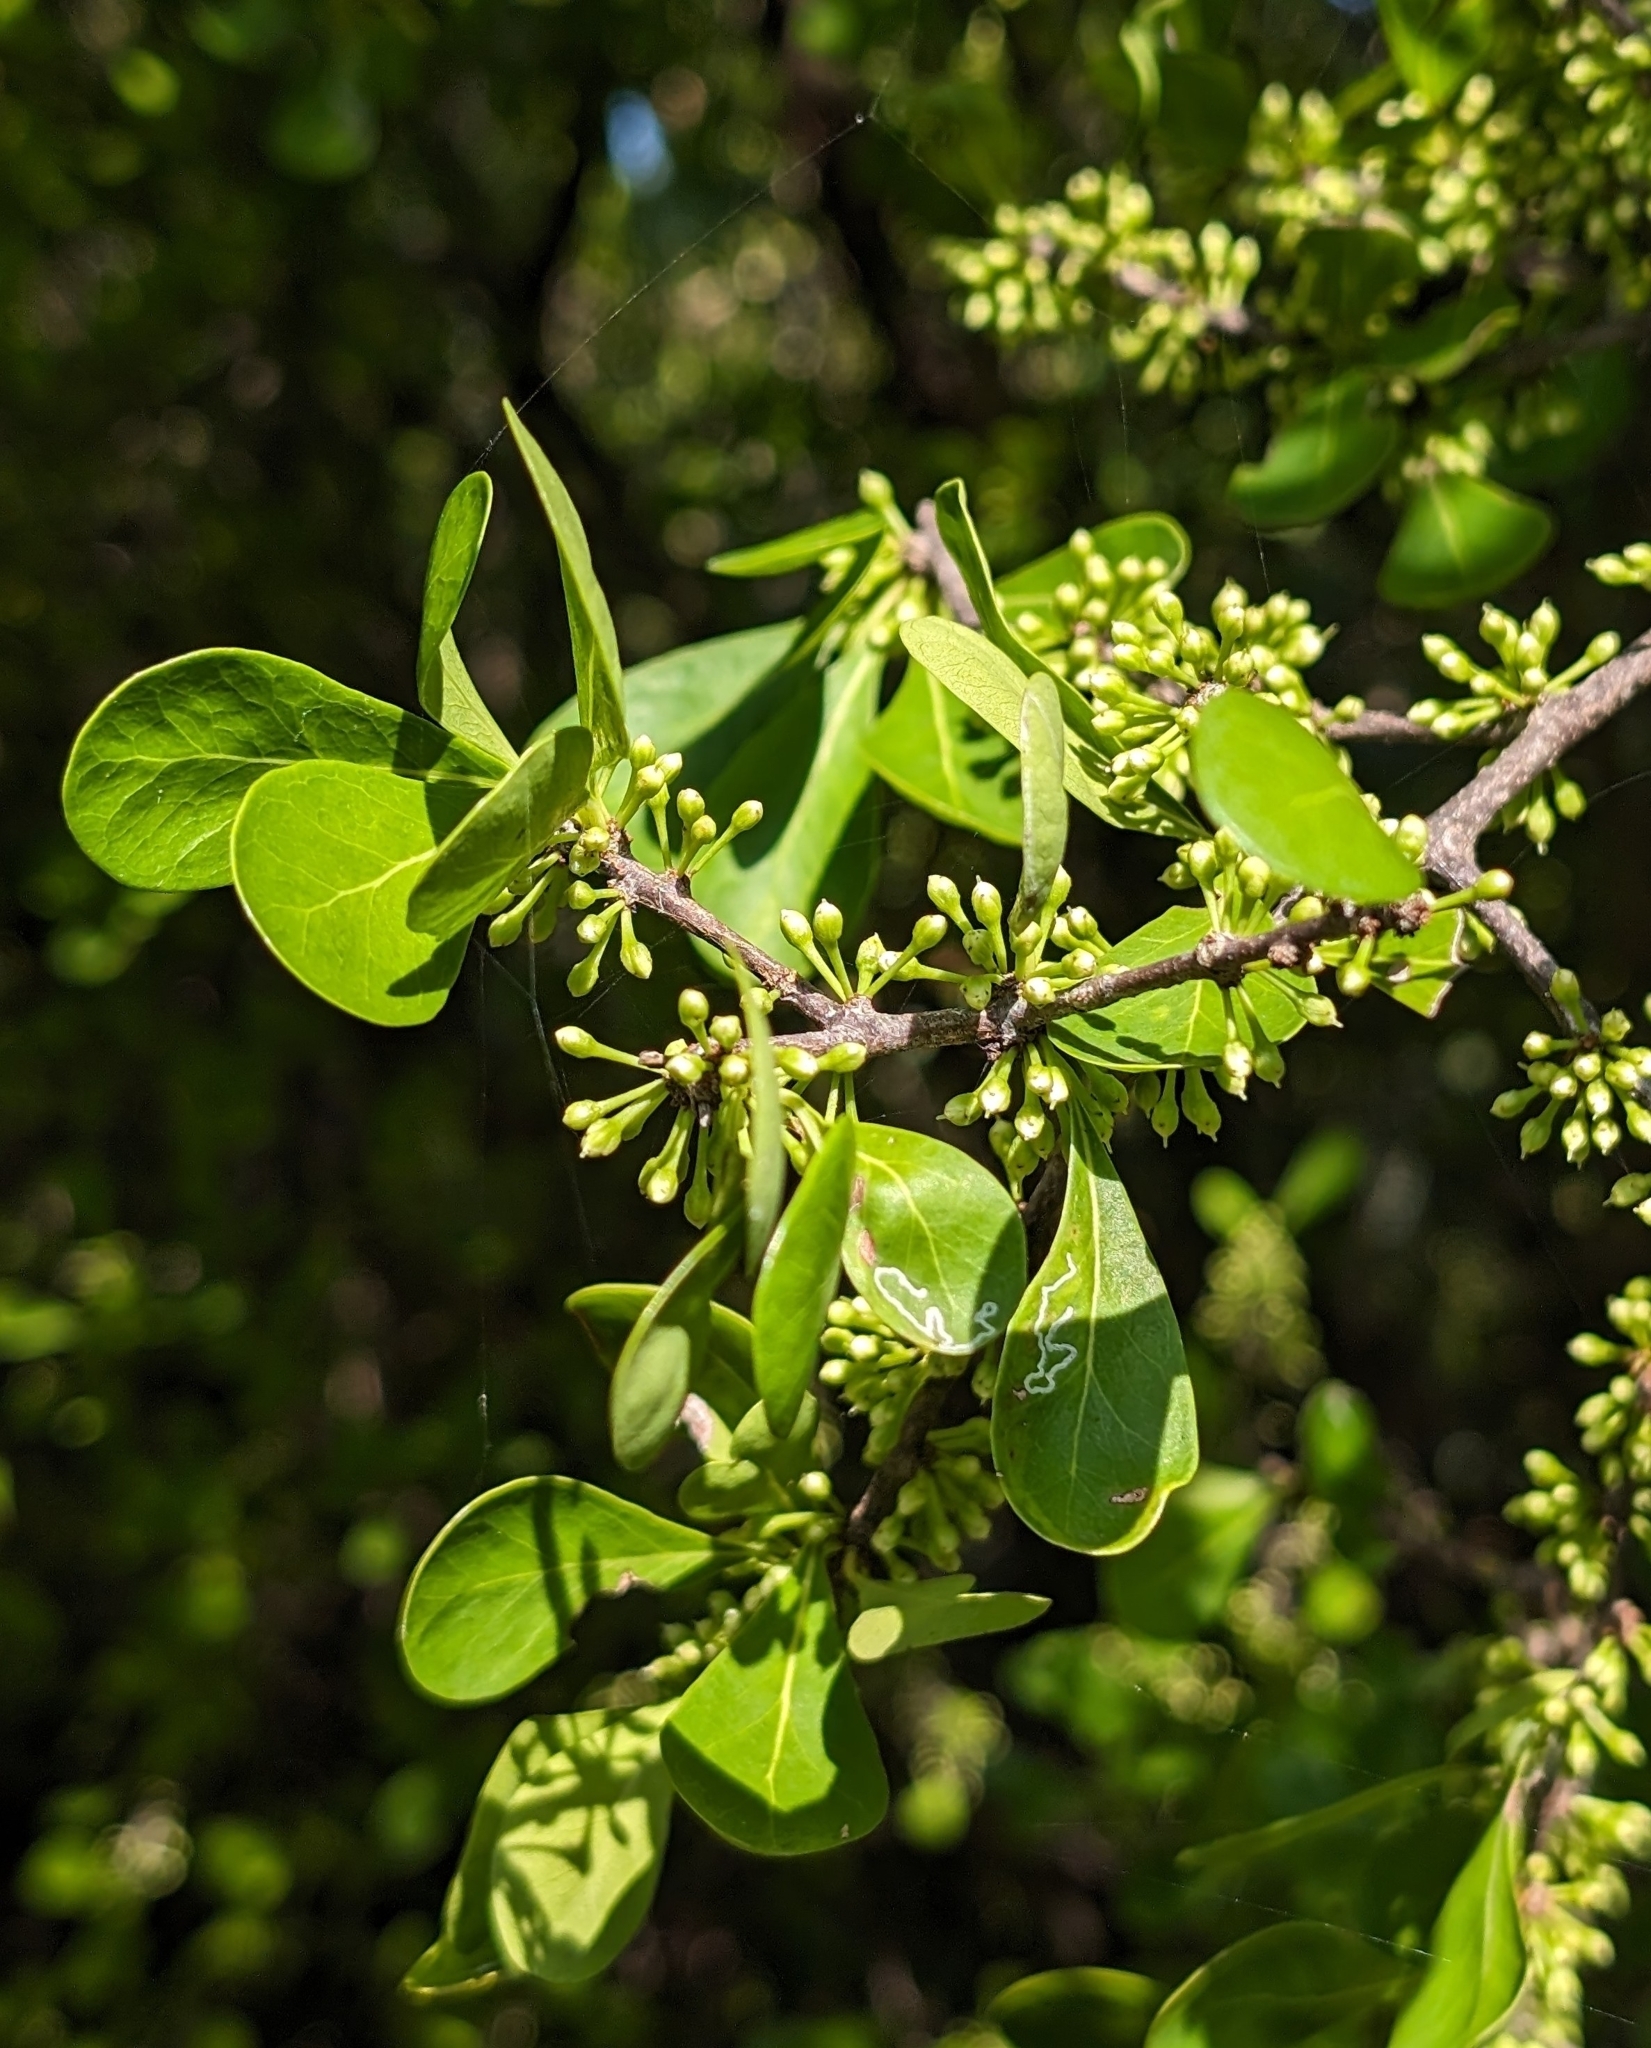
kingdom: Plantae
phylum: Tracheophyta
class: Magnoliopsida
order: Ericales
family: Sapotaceae
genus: Sideroxylon
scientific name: Sideroxylon celastrinum
